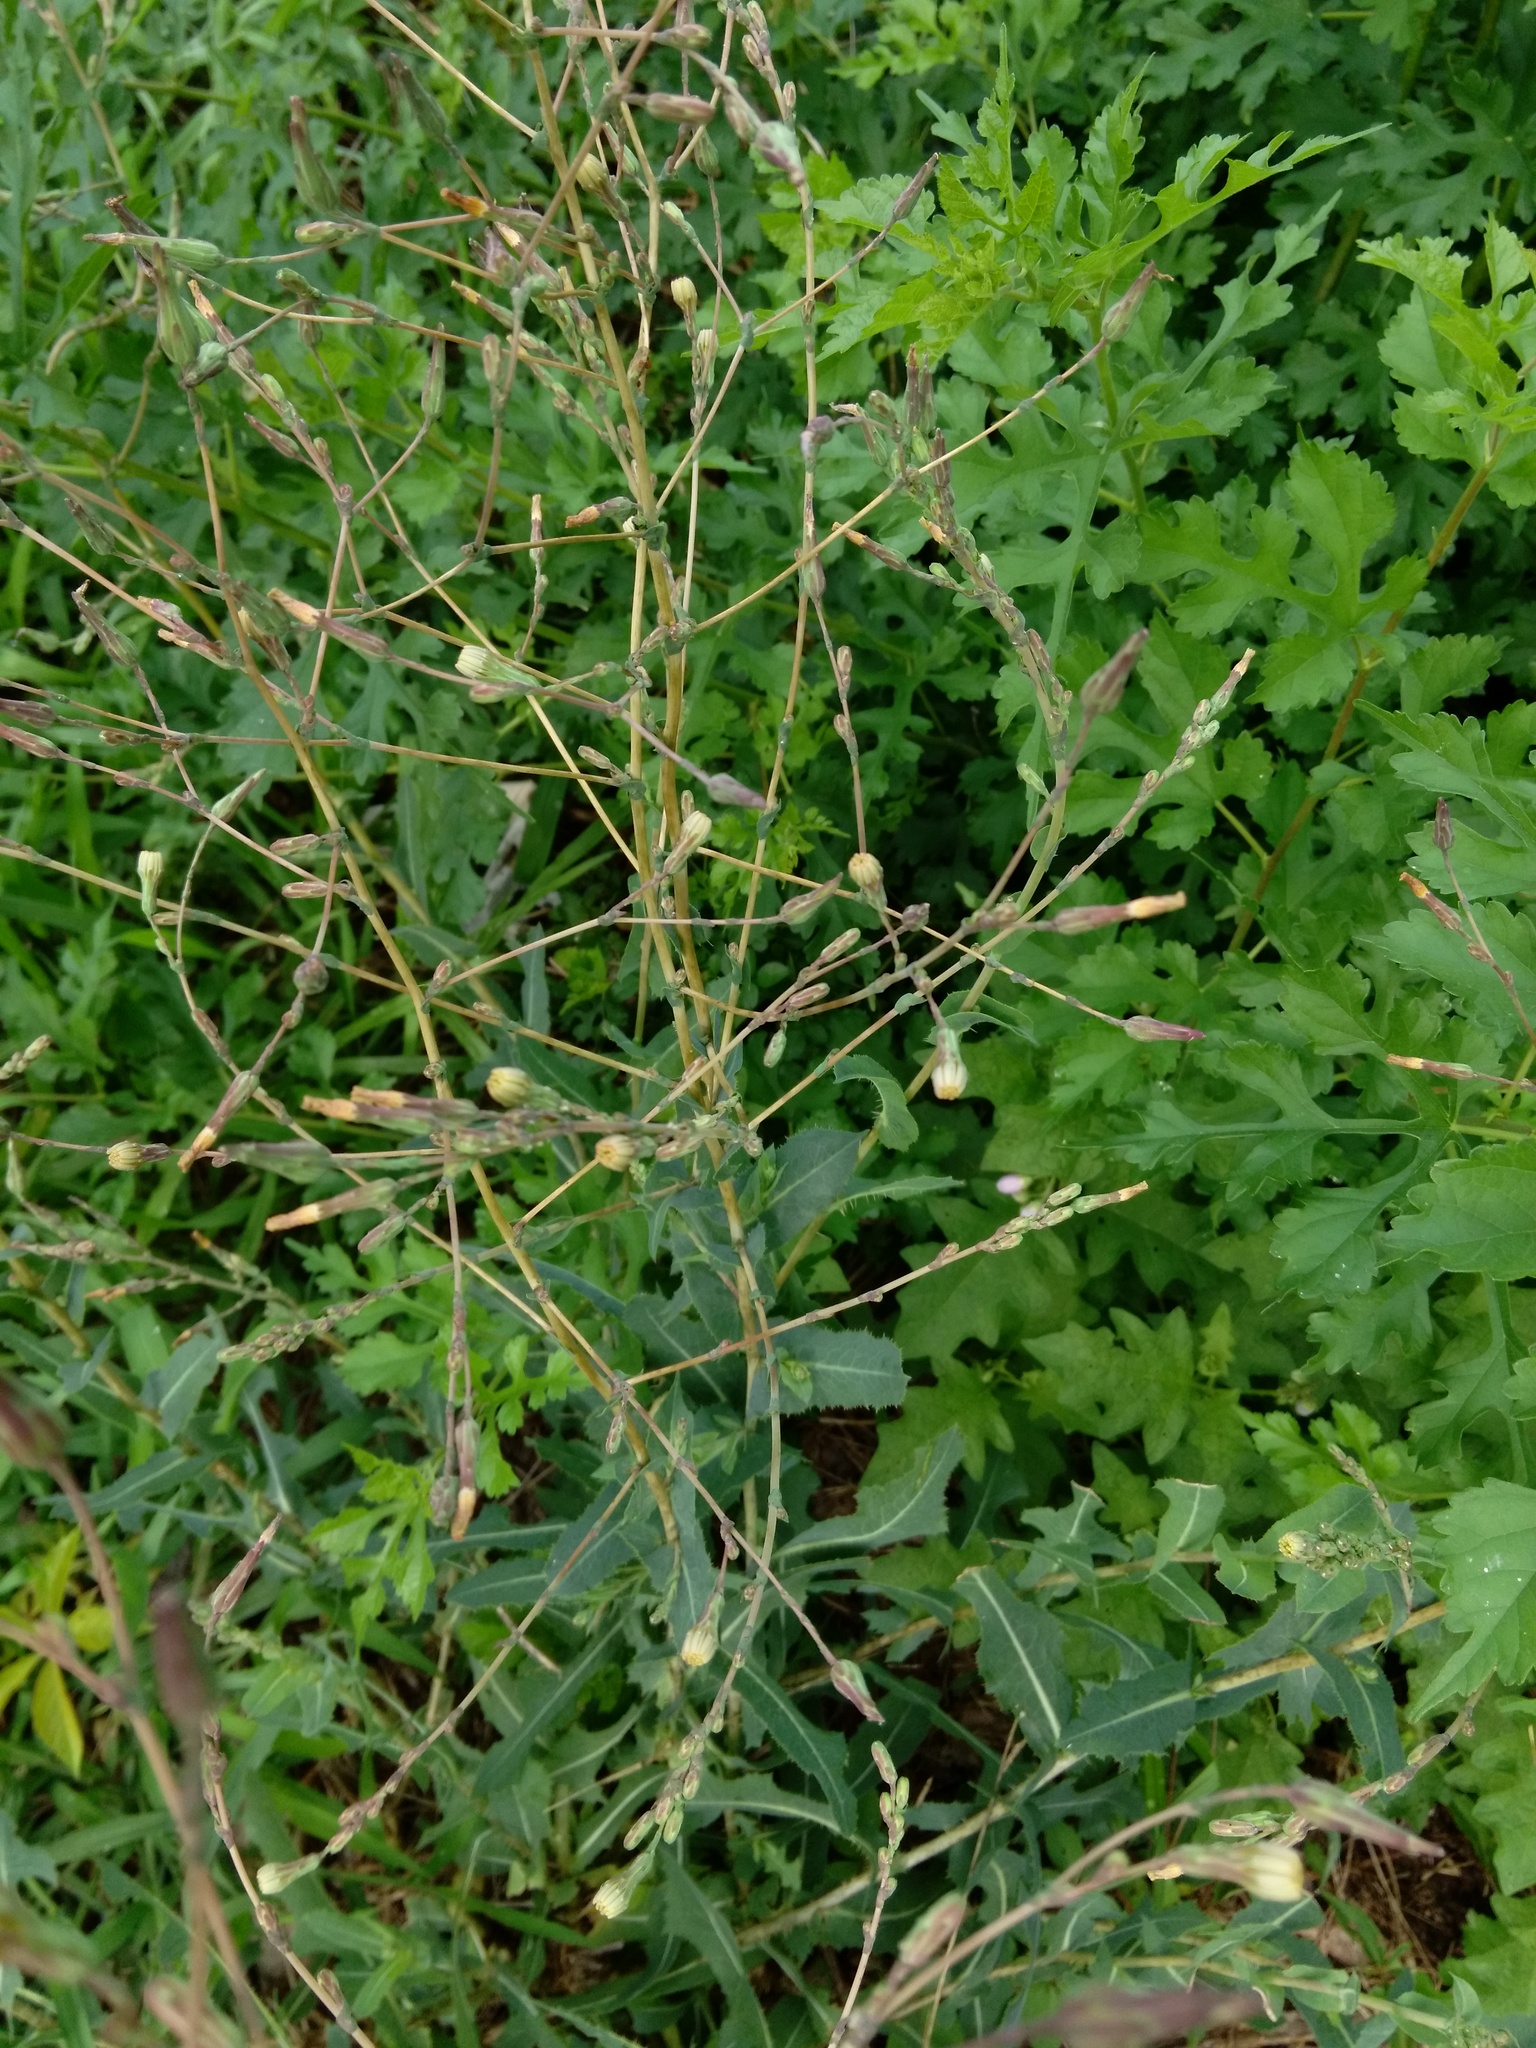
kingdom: Plantae
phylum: Tracheophyta
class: Magnoliopsida
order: Asterales
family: Asteraceae
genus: Lactuca
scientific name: Lactuca serriola
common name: Prickly lettuce
